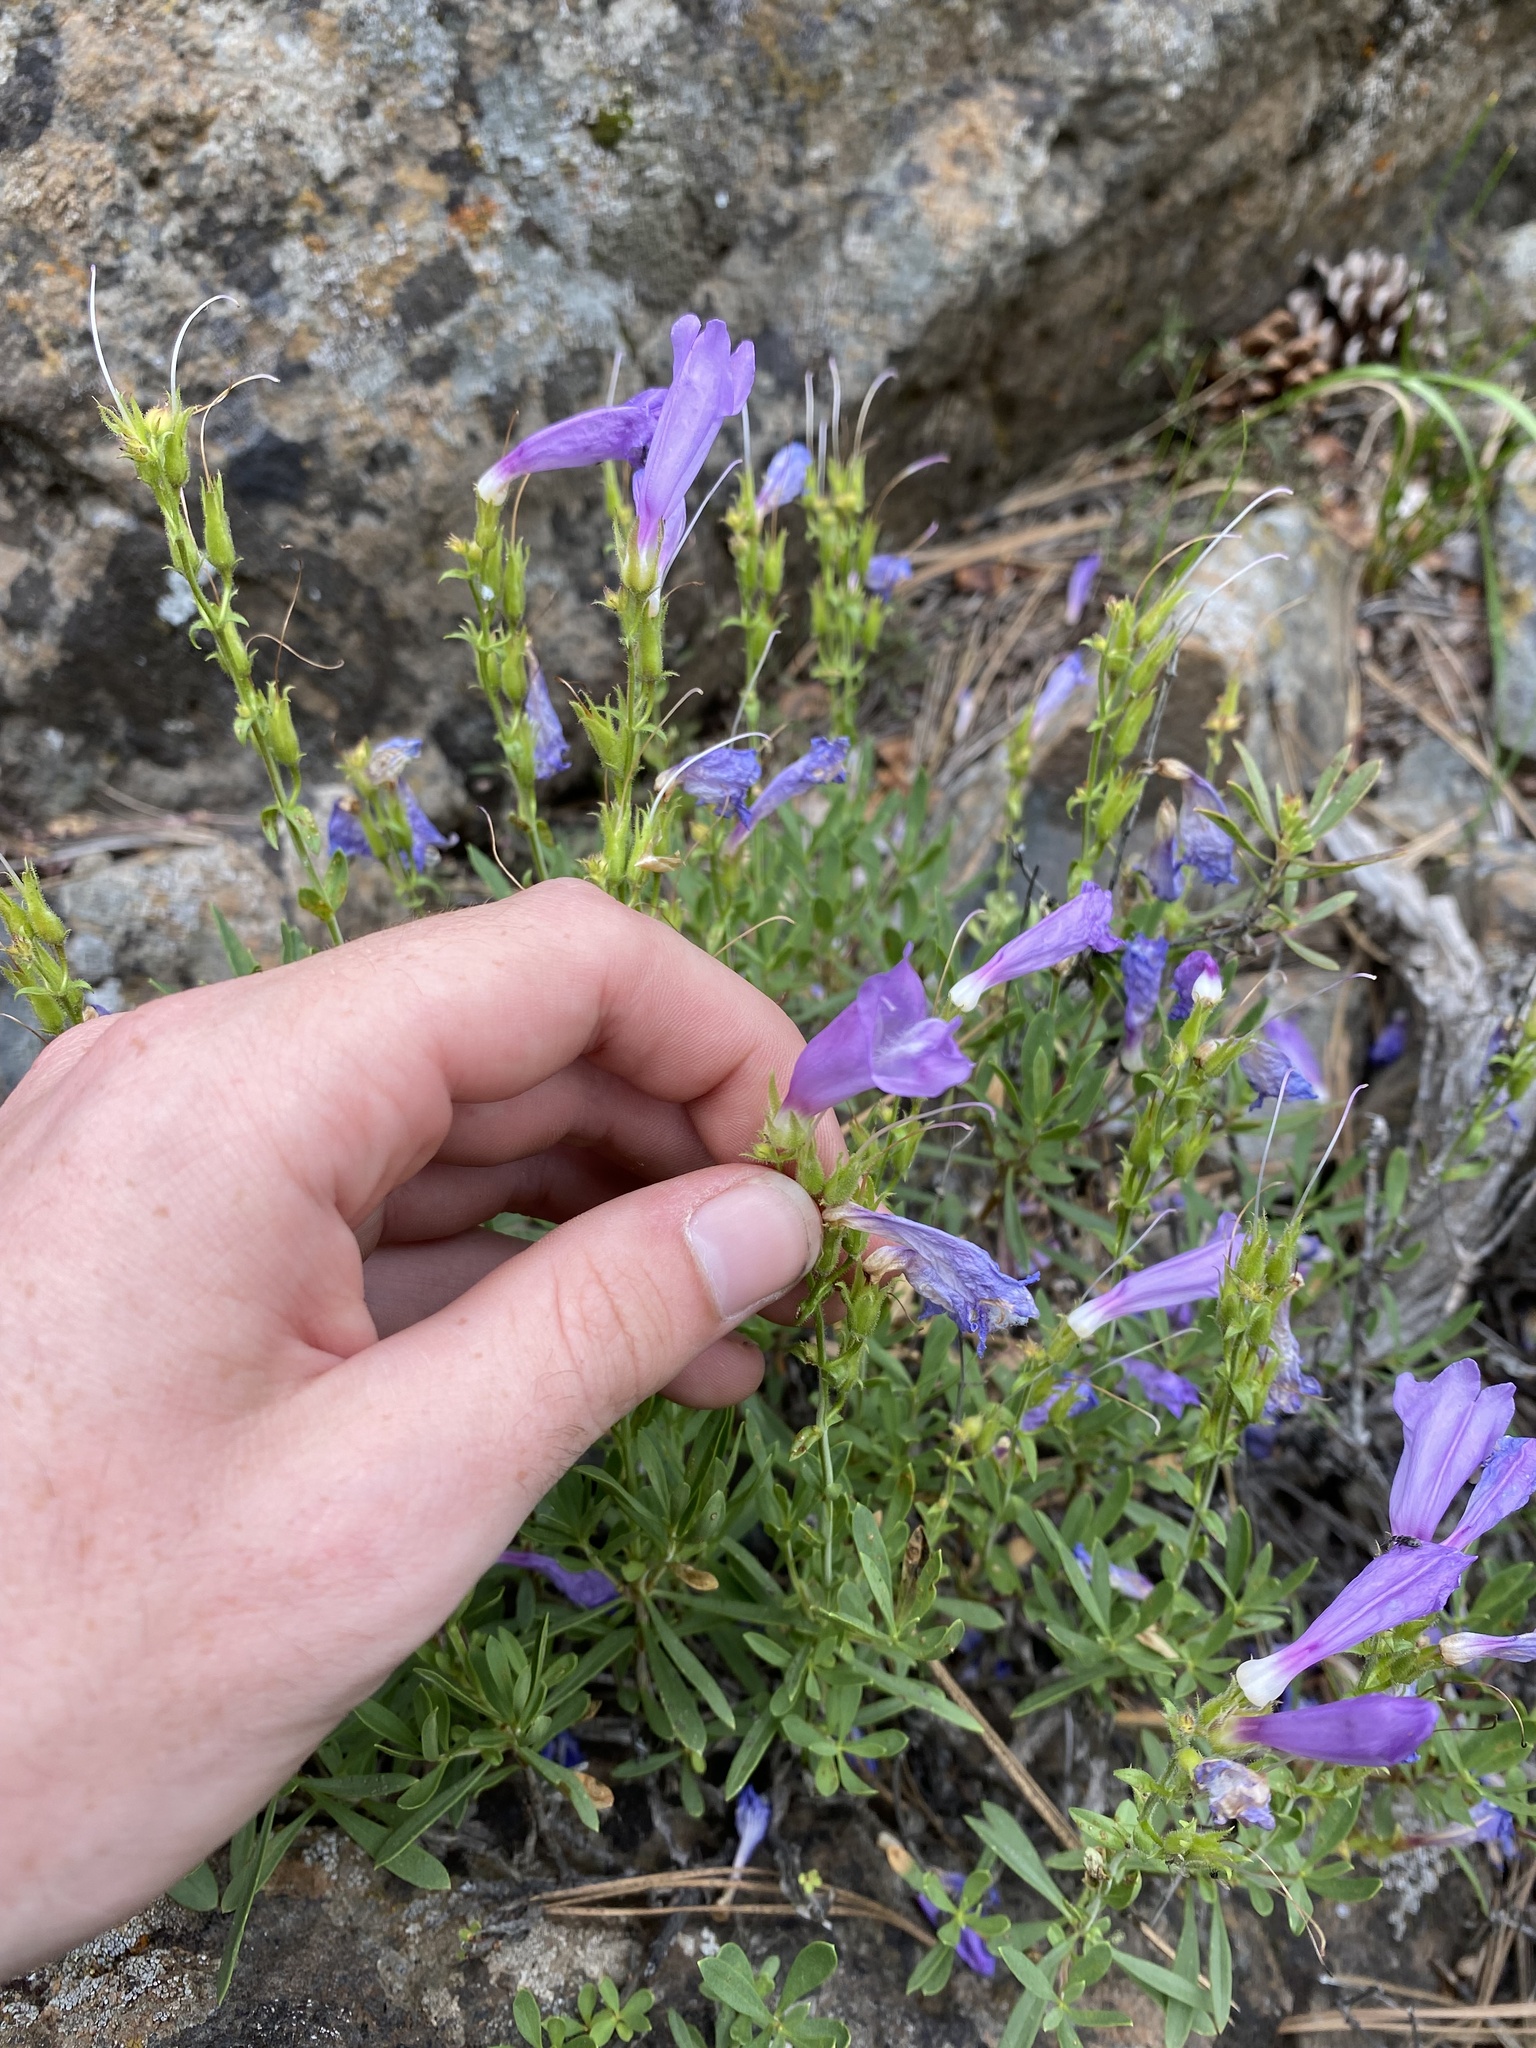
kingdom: Plantae
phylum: Tracheophyta
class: Magnoliopsida
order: Lamiales
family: Plantaginaceae
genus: Penstemon
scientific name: Penstemon fruticosus
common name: Bush penstemon
